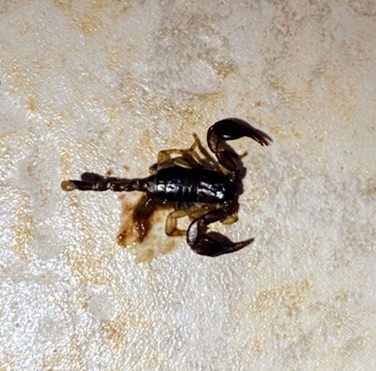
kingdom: Animalia
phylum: Arthropoda
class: Arachnida
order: Scorpiones
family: Euscorpiidae
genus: Euscorpius
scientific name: Euscorpius flavicaudis
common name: European yellow-tailed scorpion
